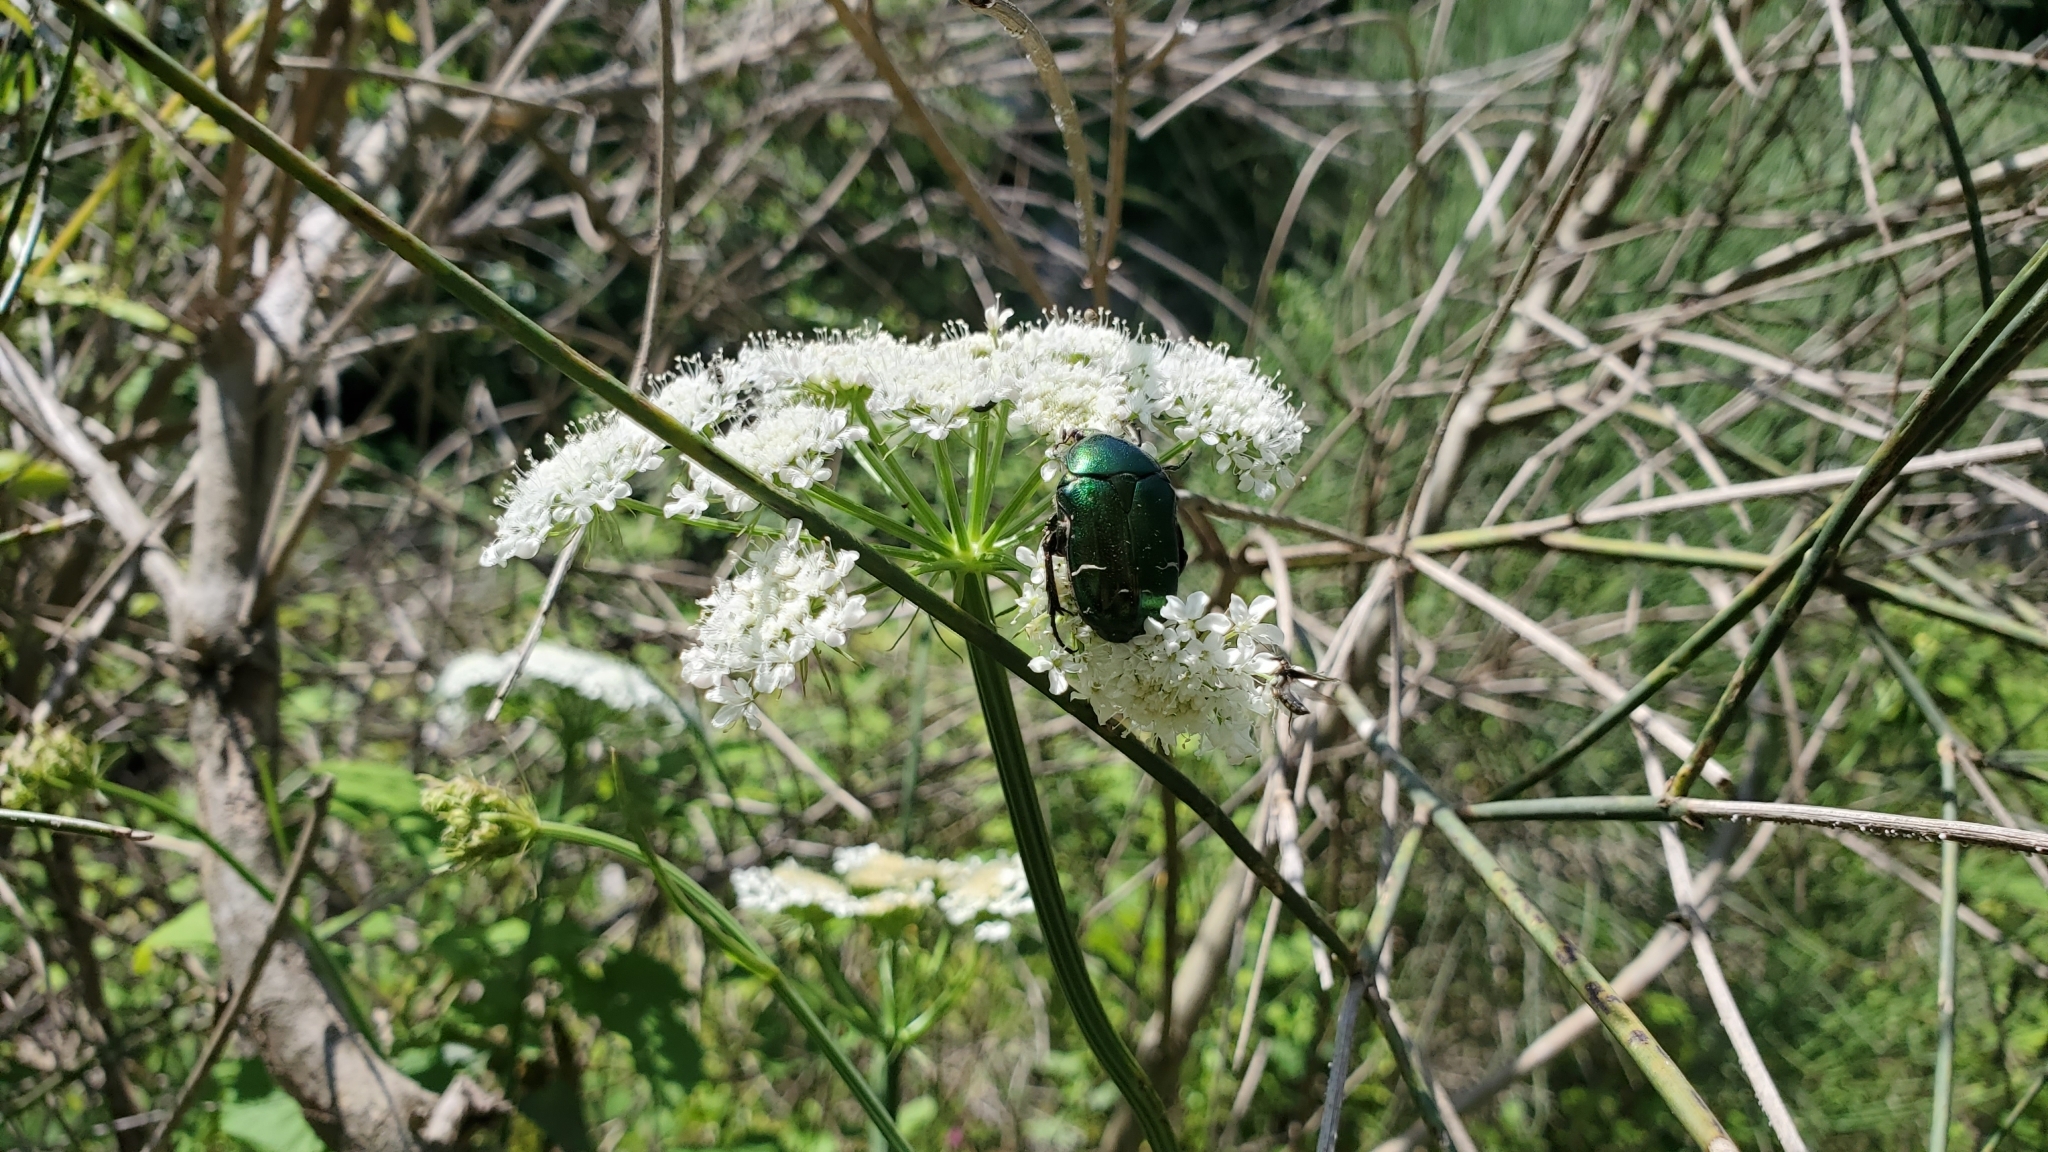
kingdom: Animalia
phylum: Arthropoda
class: Insecta
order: Coleoptera
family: Scarabaeidae
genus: Cetonia
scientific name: Cetonia aurata
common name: Rose chafer
